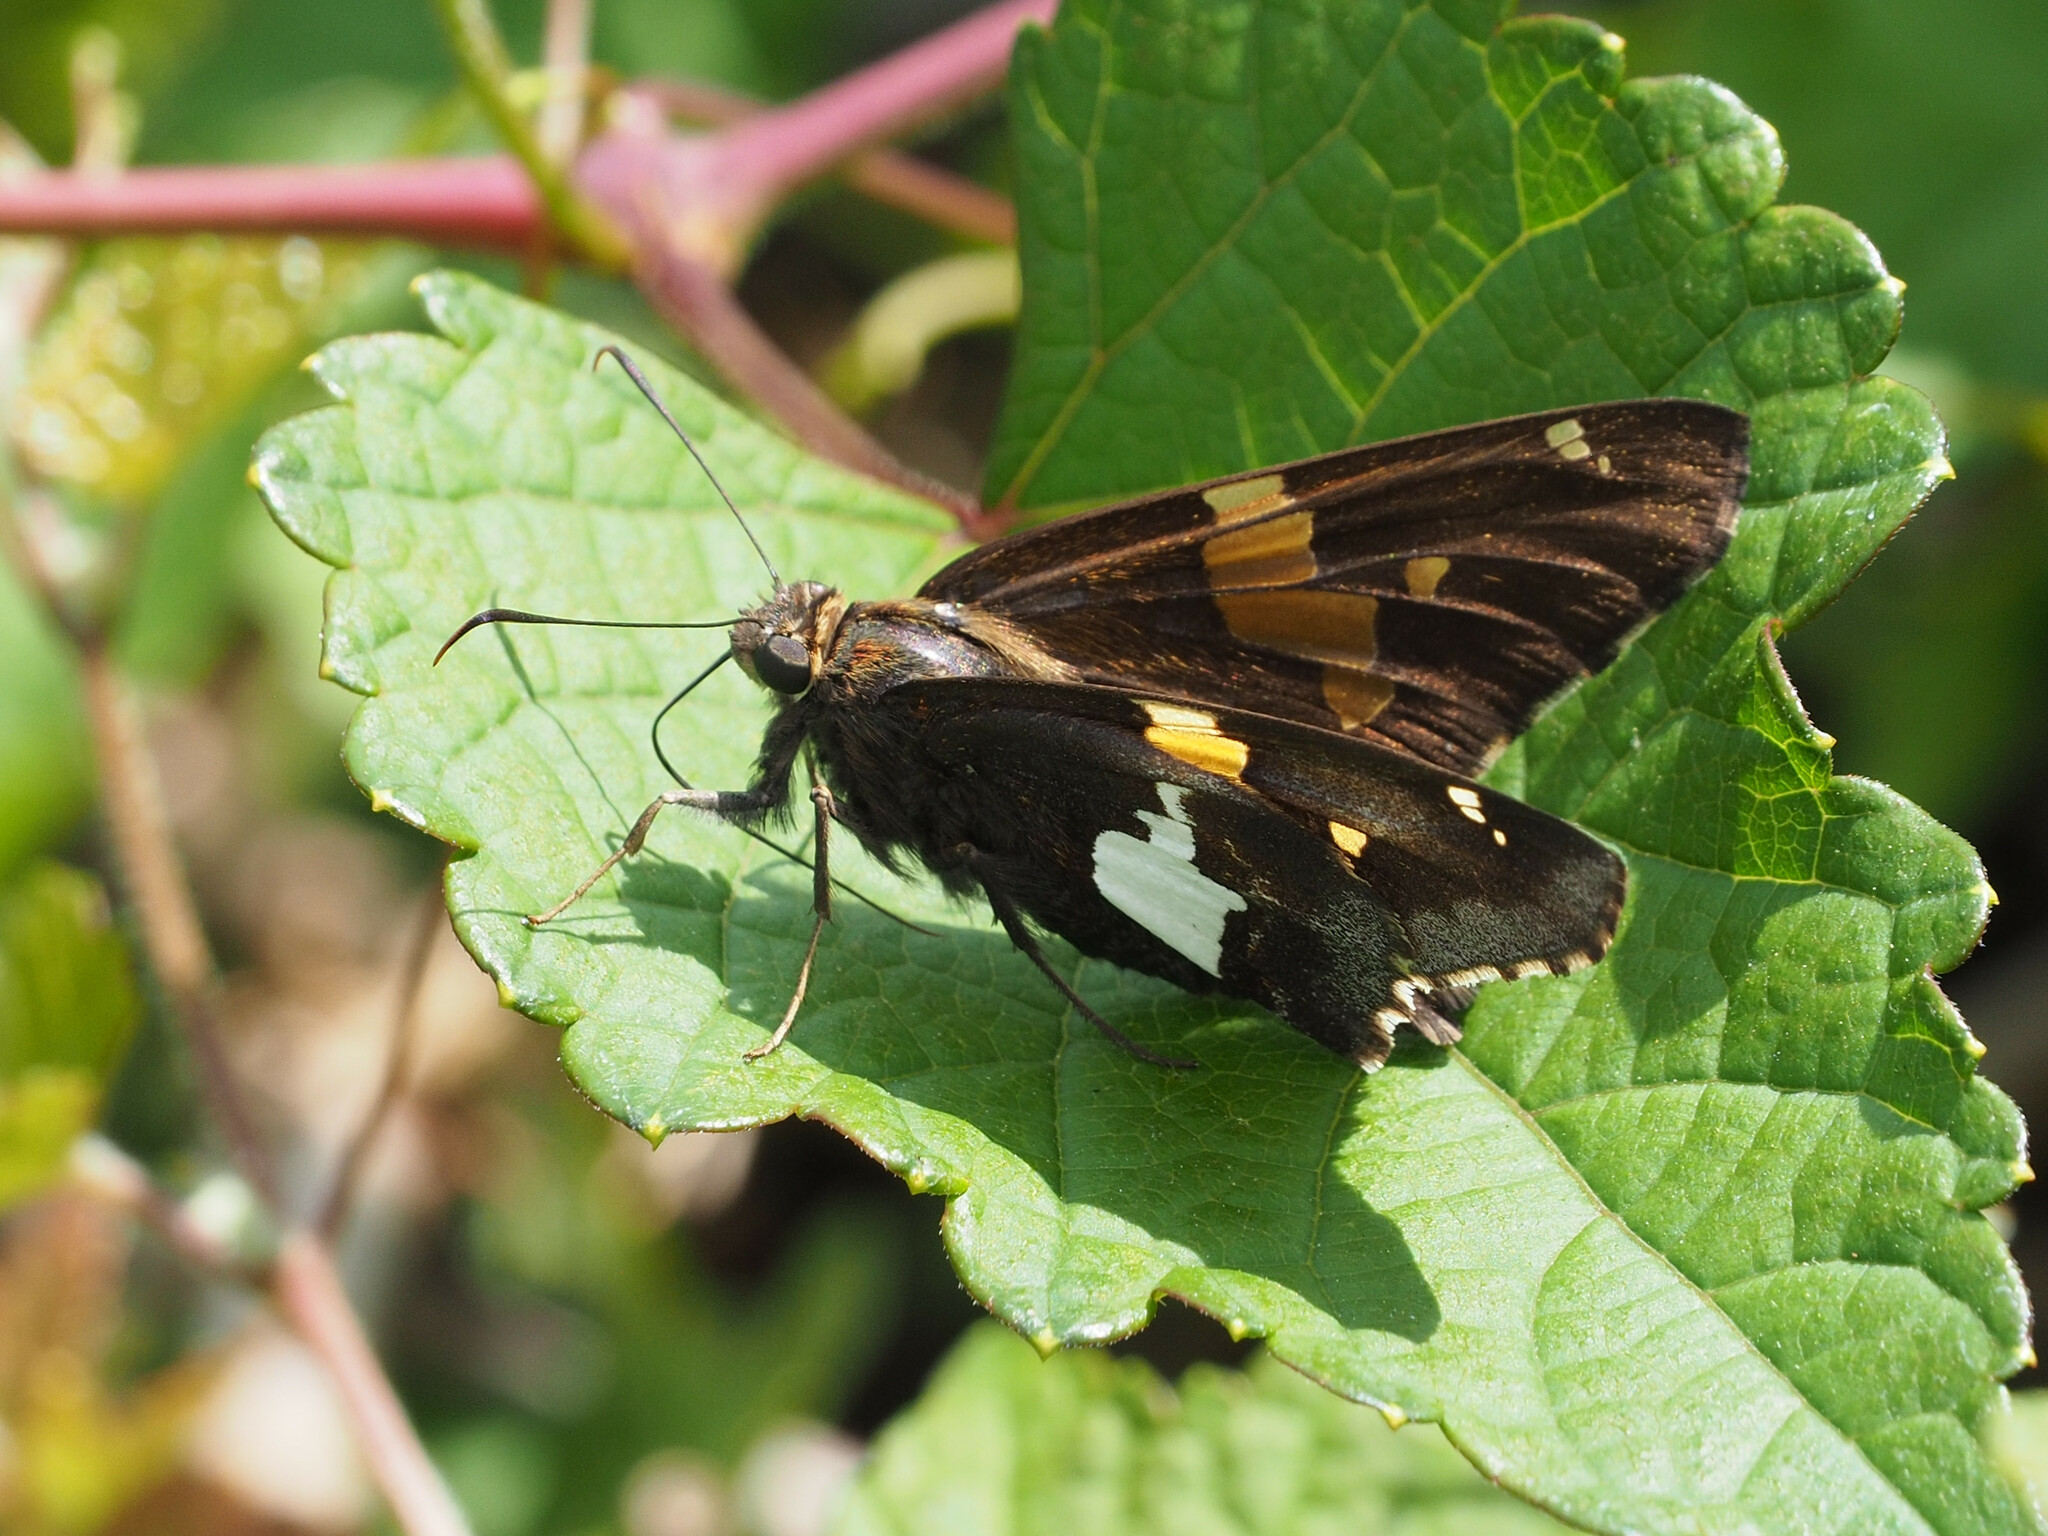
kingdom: Animalia
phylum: Arthropoda
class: Insecta
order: Lepidoptera
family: Hesperiidae
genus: Epargyreus
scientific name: Epargyreus clarus
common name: Silver-spotted skipper
